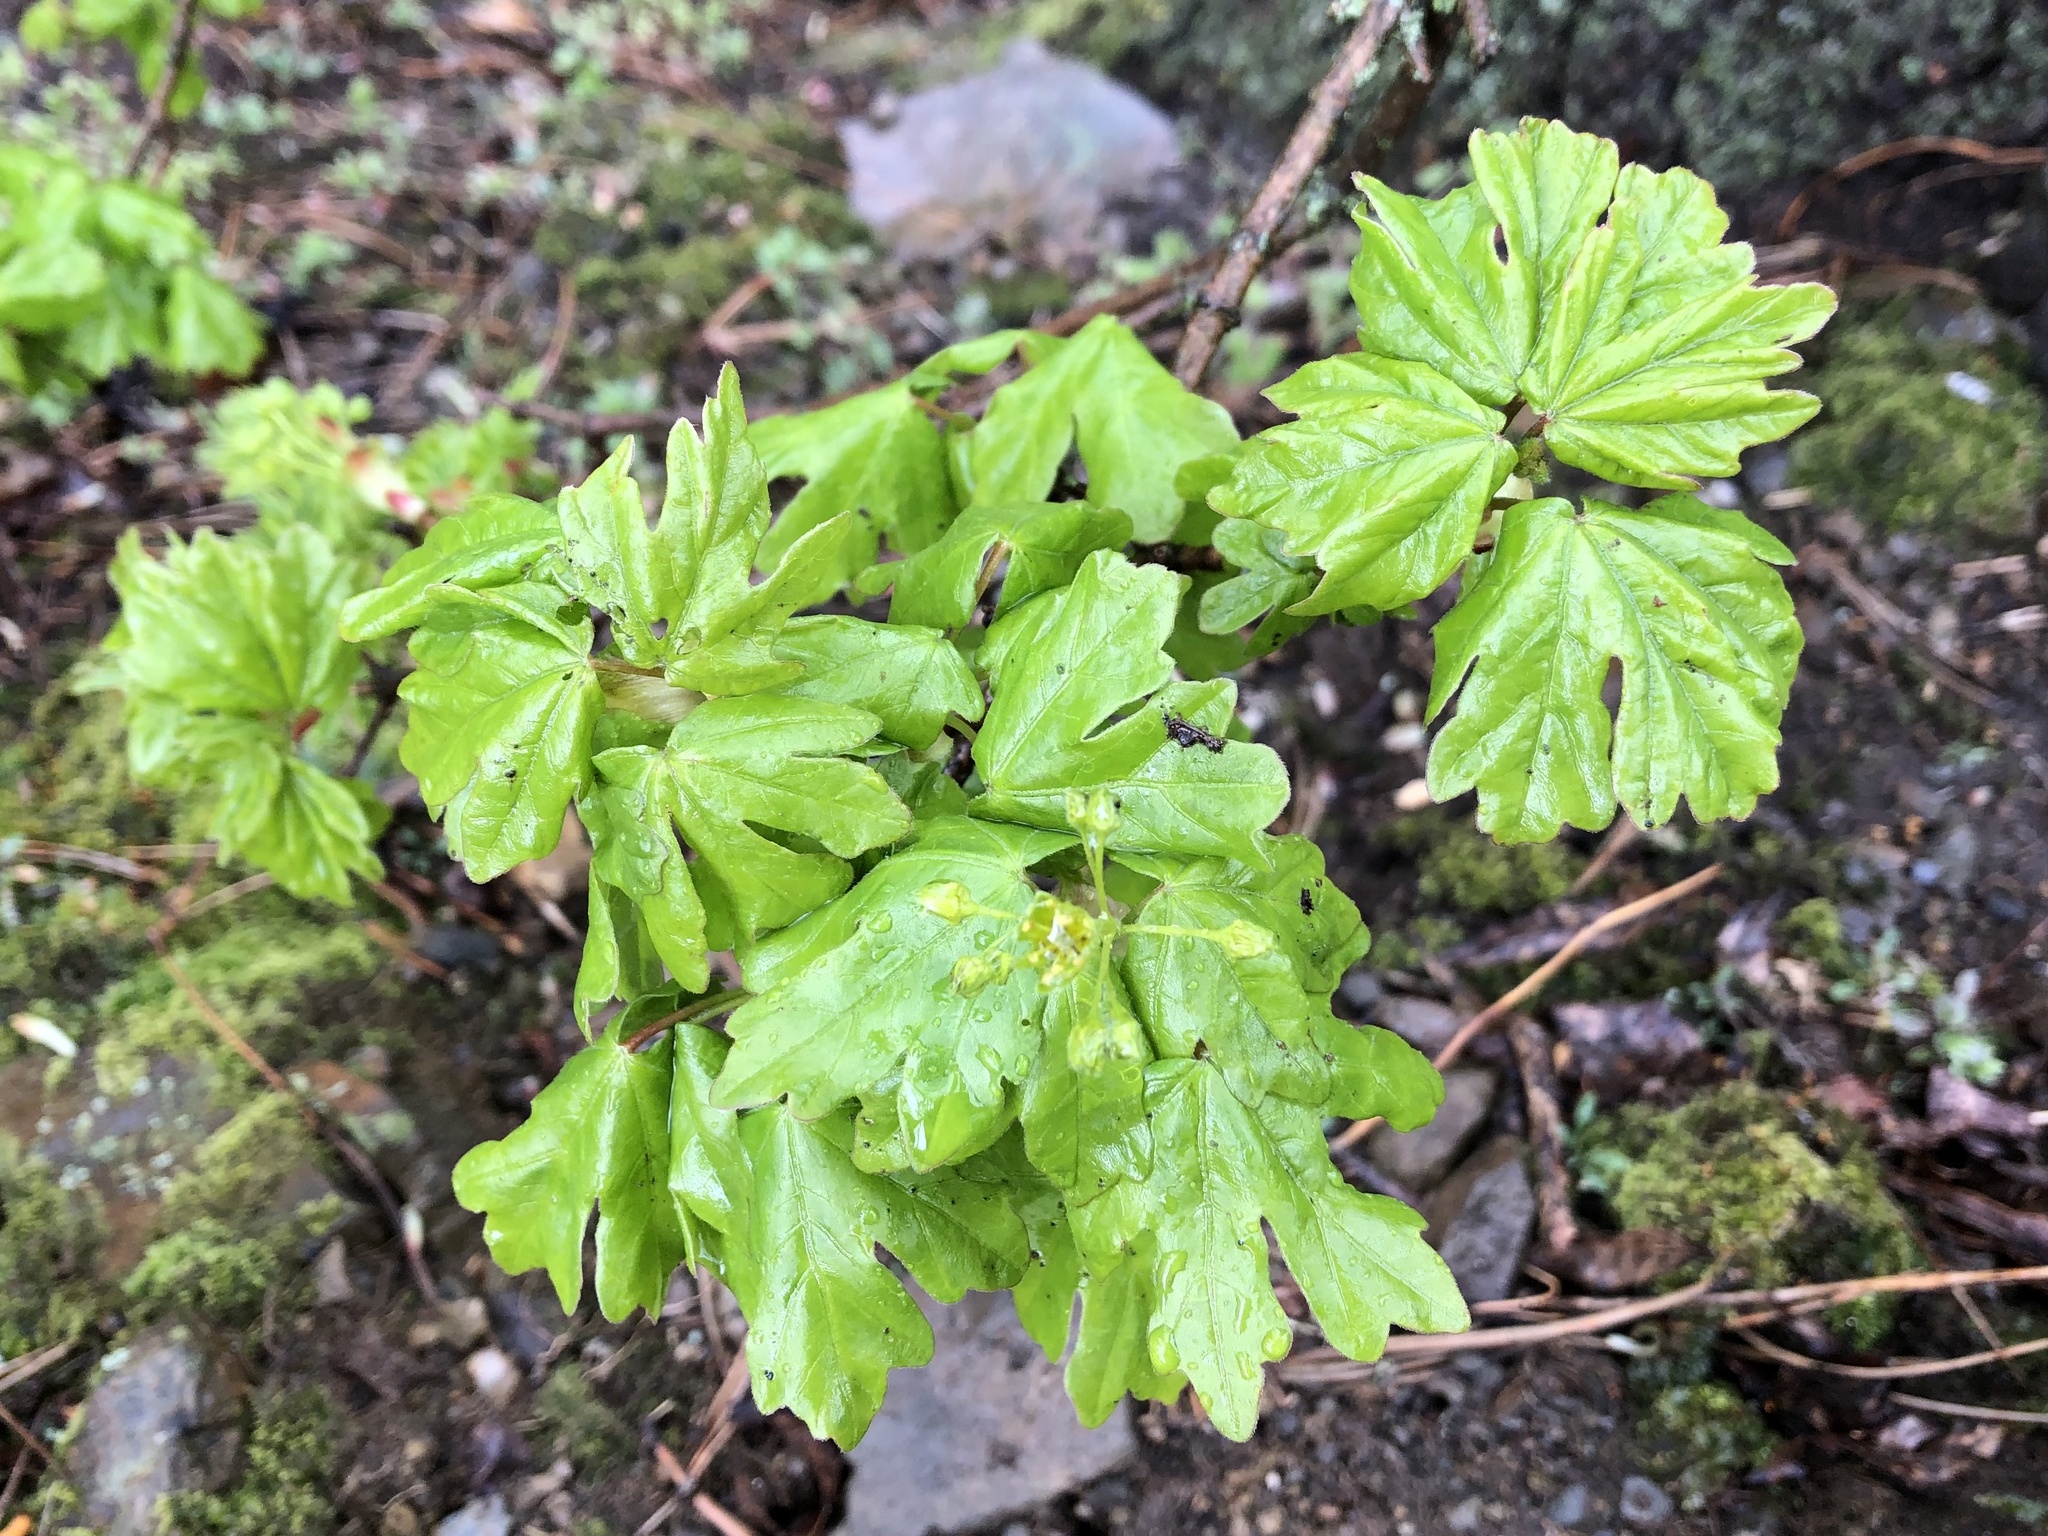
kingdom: Plantae
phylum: Tracheophyta
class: Magnoliopsida
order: Sapindales
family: Sapindaceae
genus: Acer
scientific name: Acer campestre
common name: Field maple
